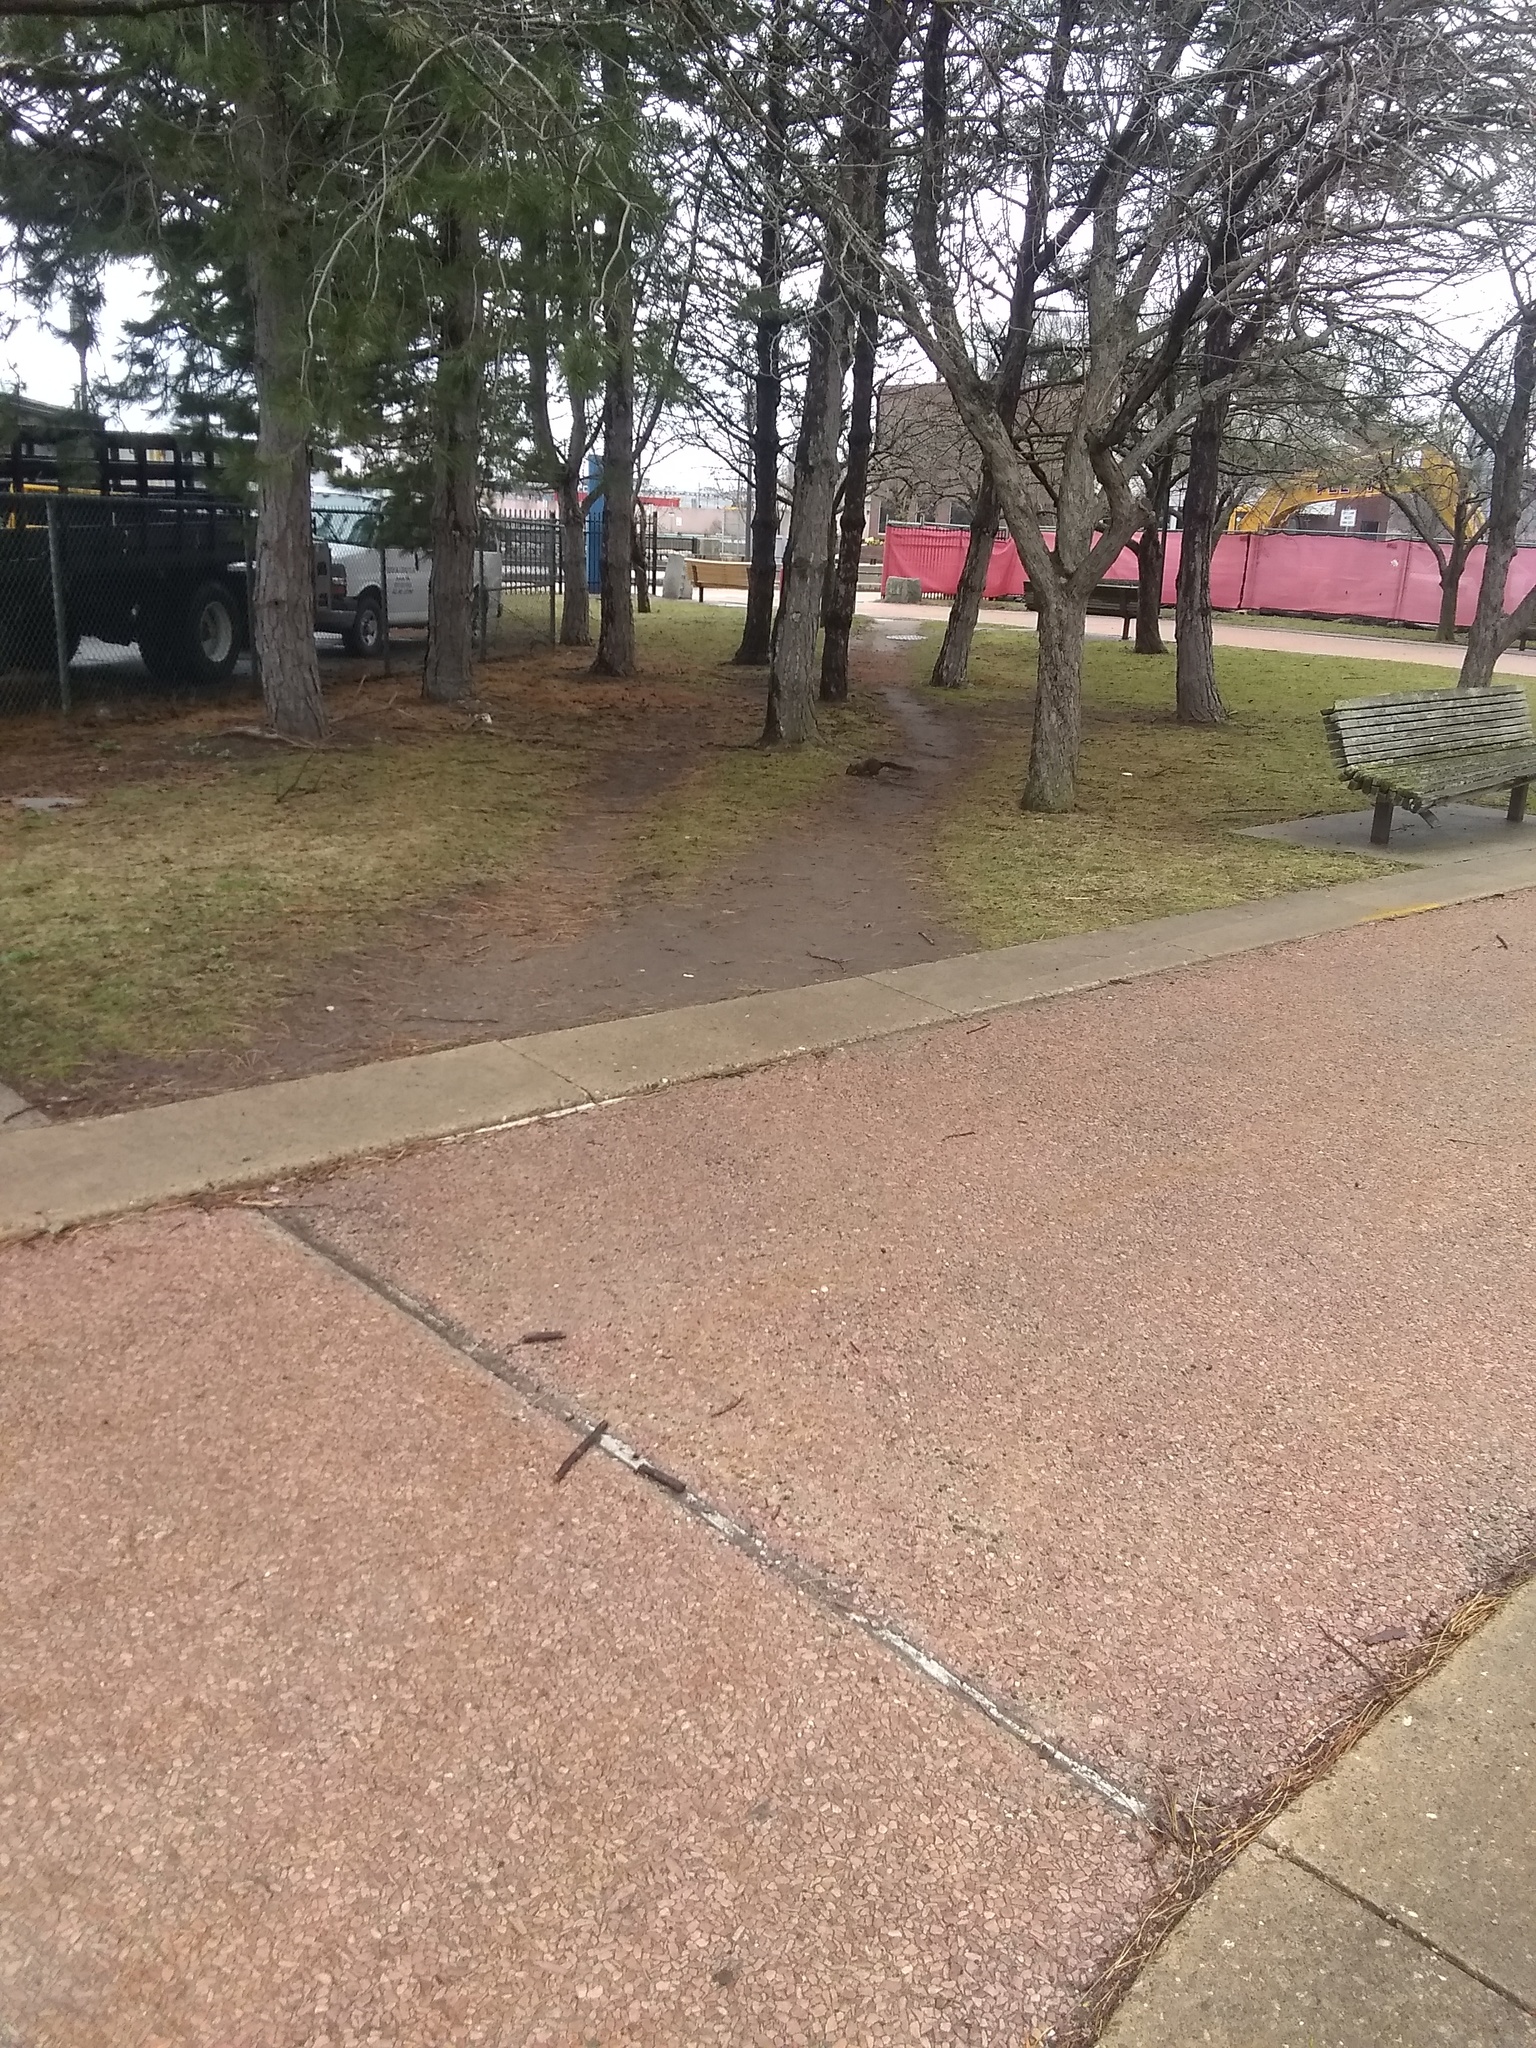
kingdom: Animalia
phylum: Chordata
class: Mammalia
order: Rodentia
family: Sciuridae
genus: Sciurus
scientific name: Sciurus carolinensis
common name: Eastern gray squirrel
